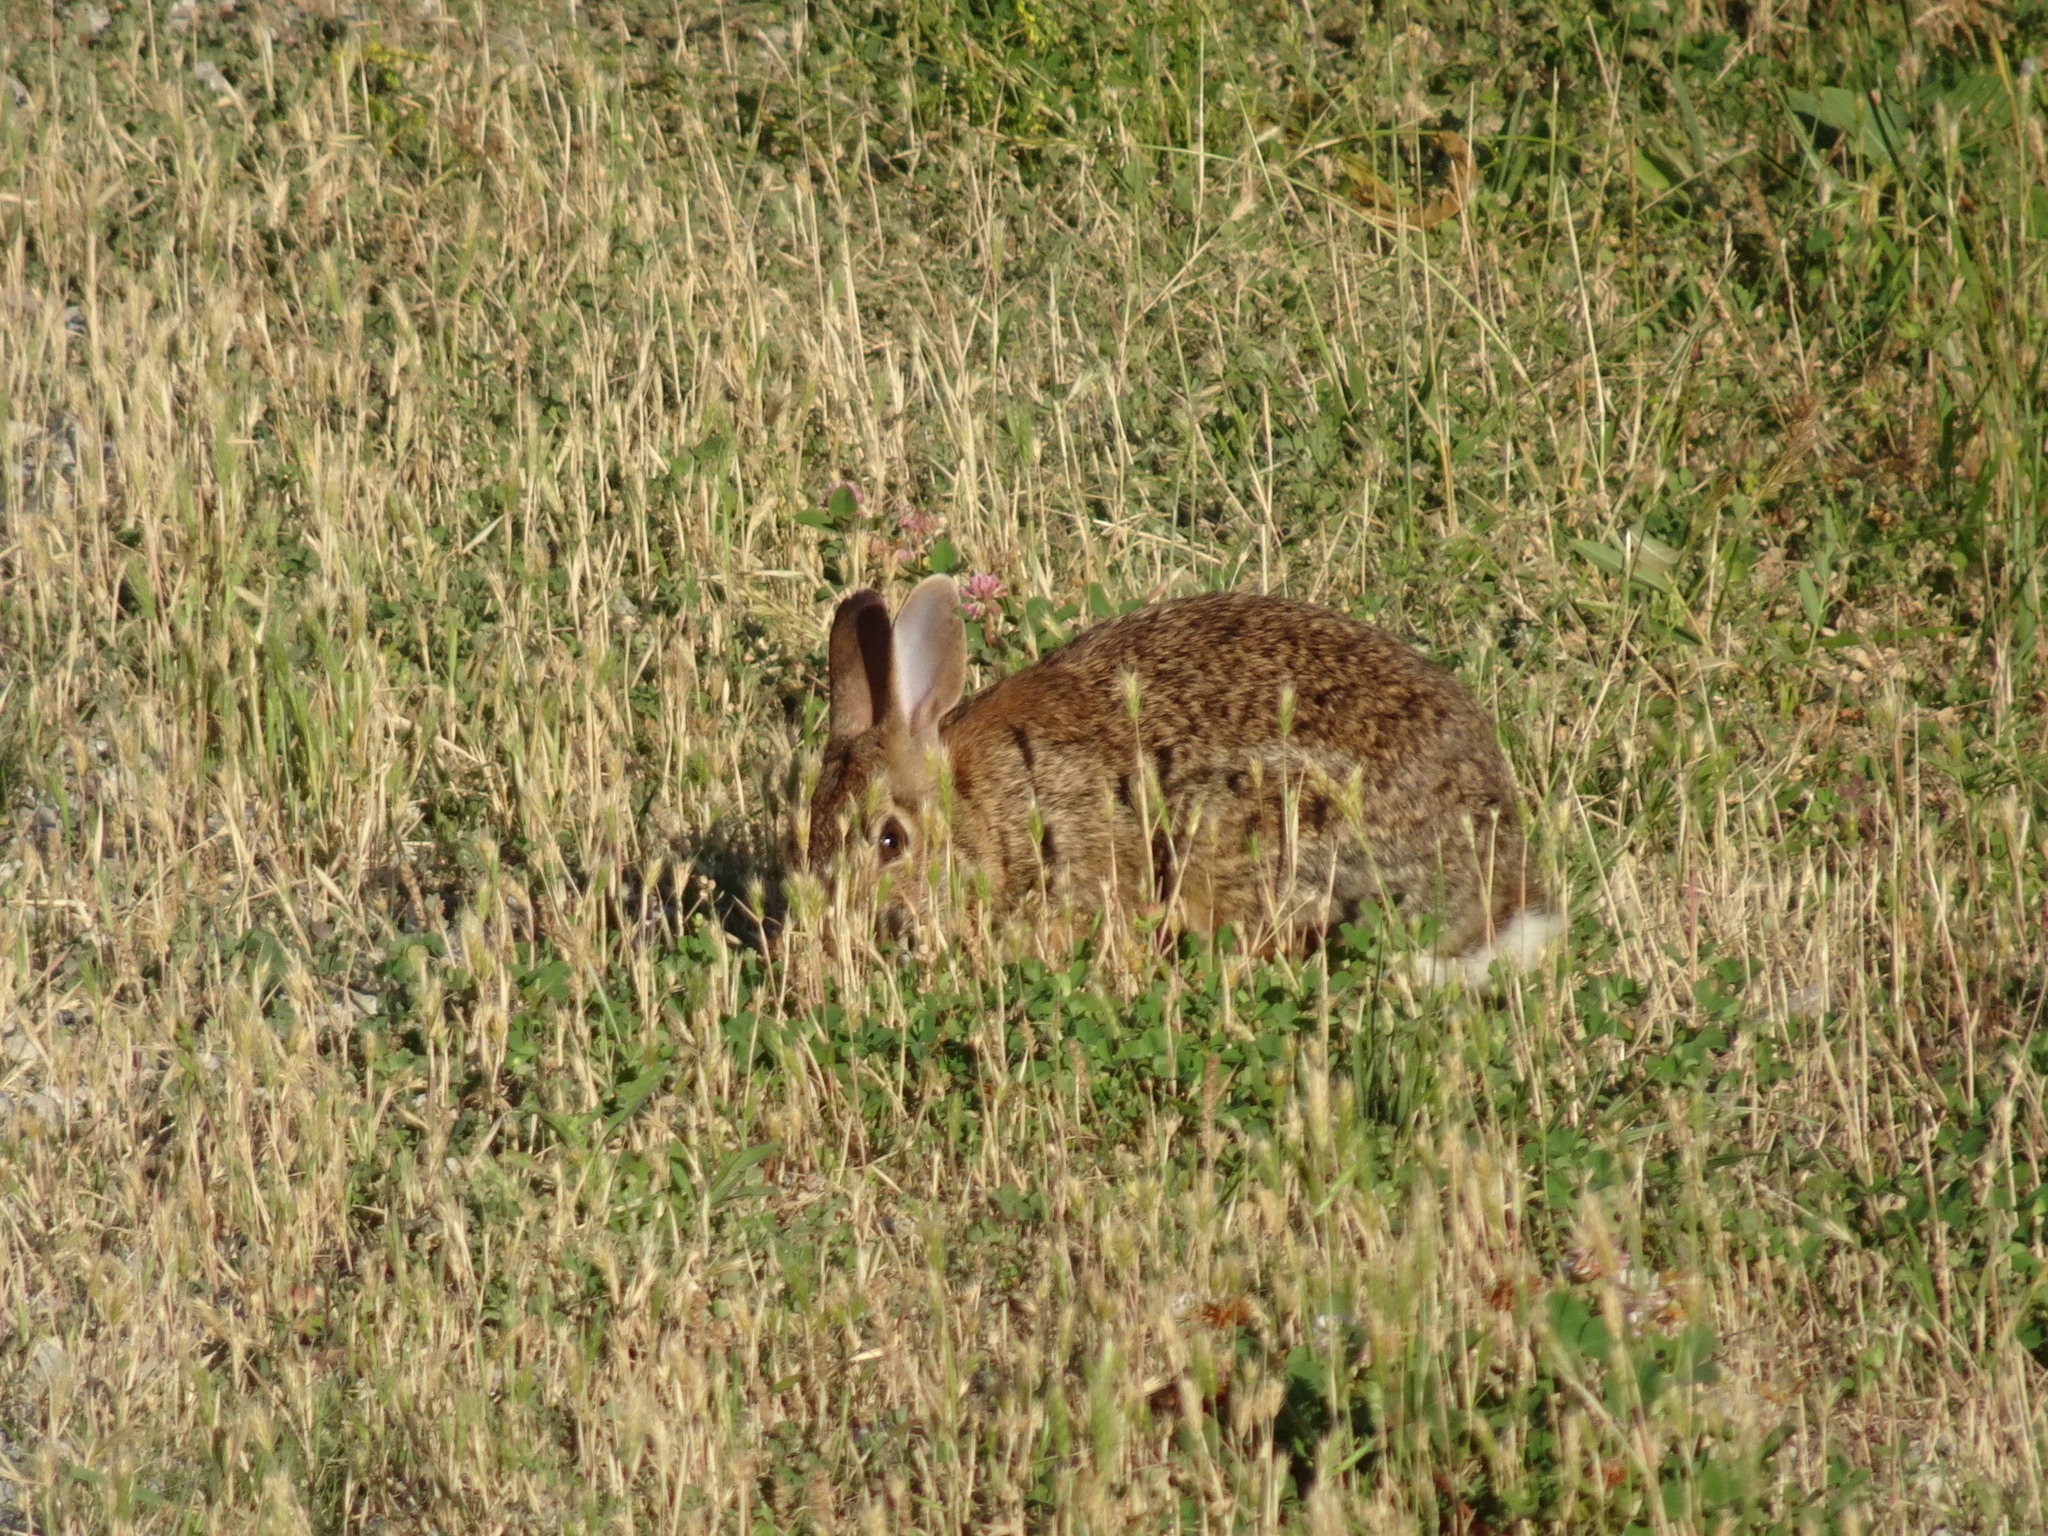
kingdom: Animalia
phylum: Chordata
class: Mammalia
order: Lagomorpha
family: Leporidae
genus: Sylvilagus
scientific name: Sylvilagus floridanus
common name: Eastern cottontail
